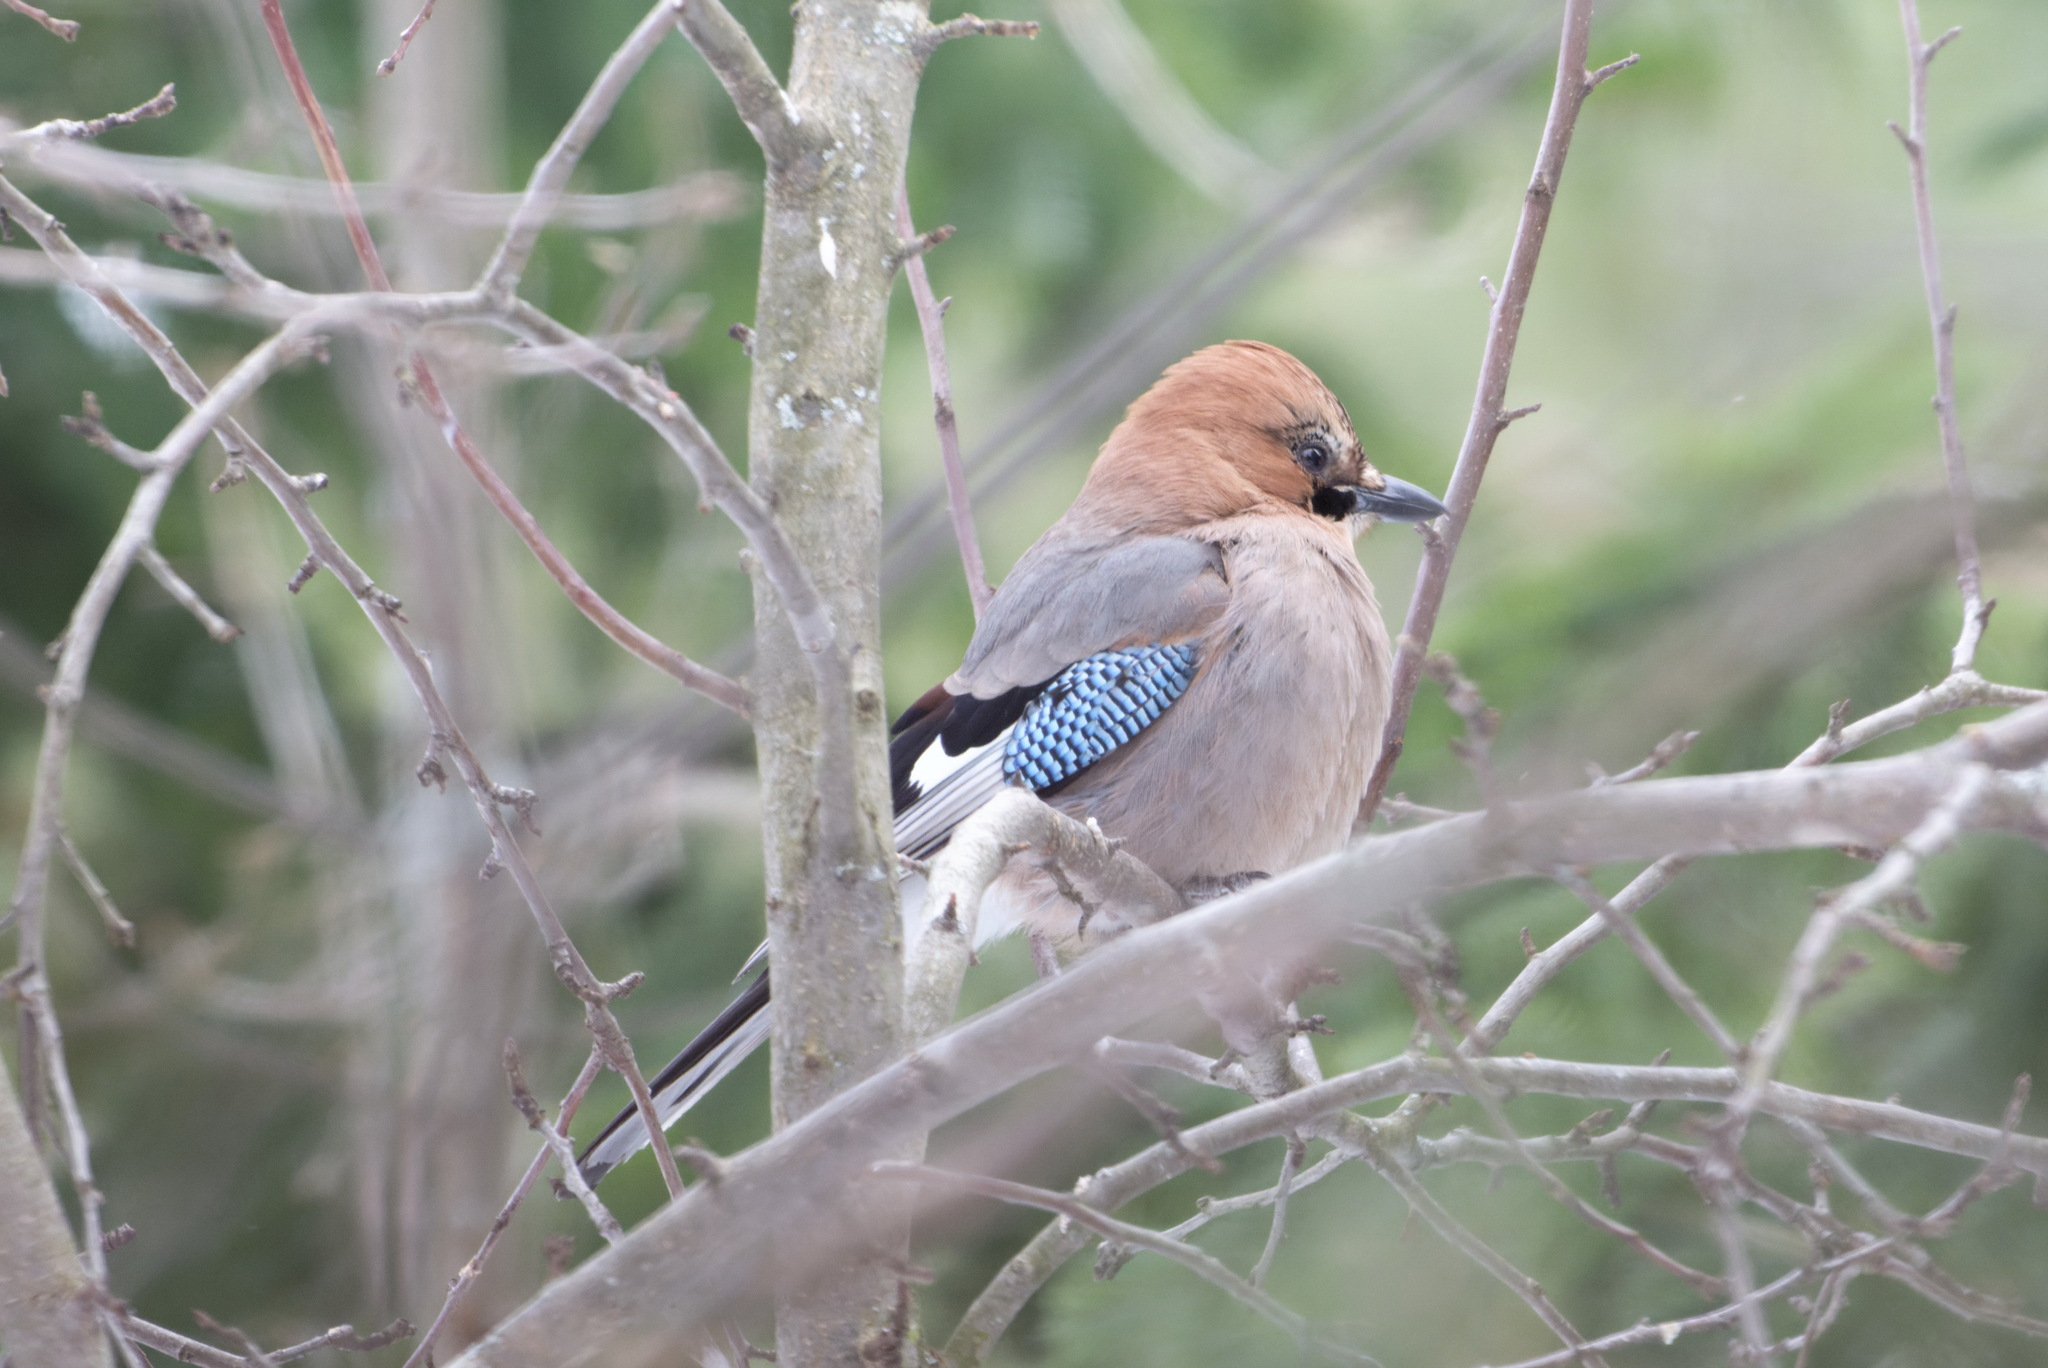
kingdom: Animalia
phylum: Chordata
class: Aves
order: Passeriformes
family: Corvidae
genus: Garrulus
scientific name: Garrulus glandarius
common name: Eurasian jay
